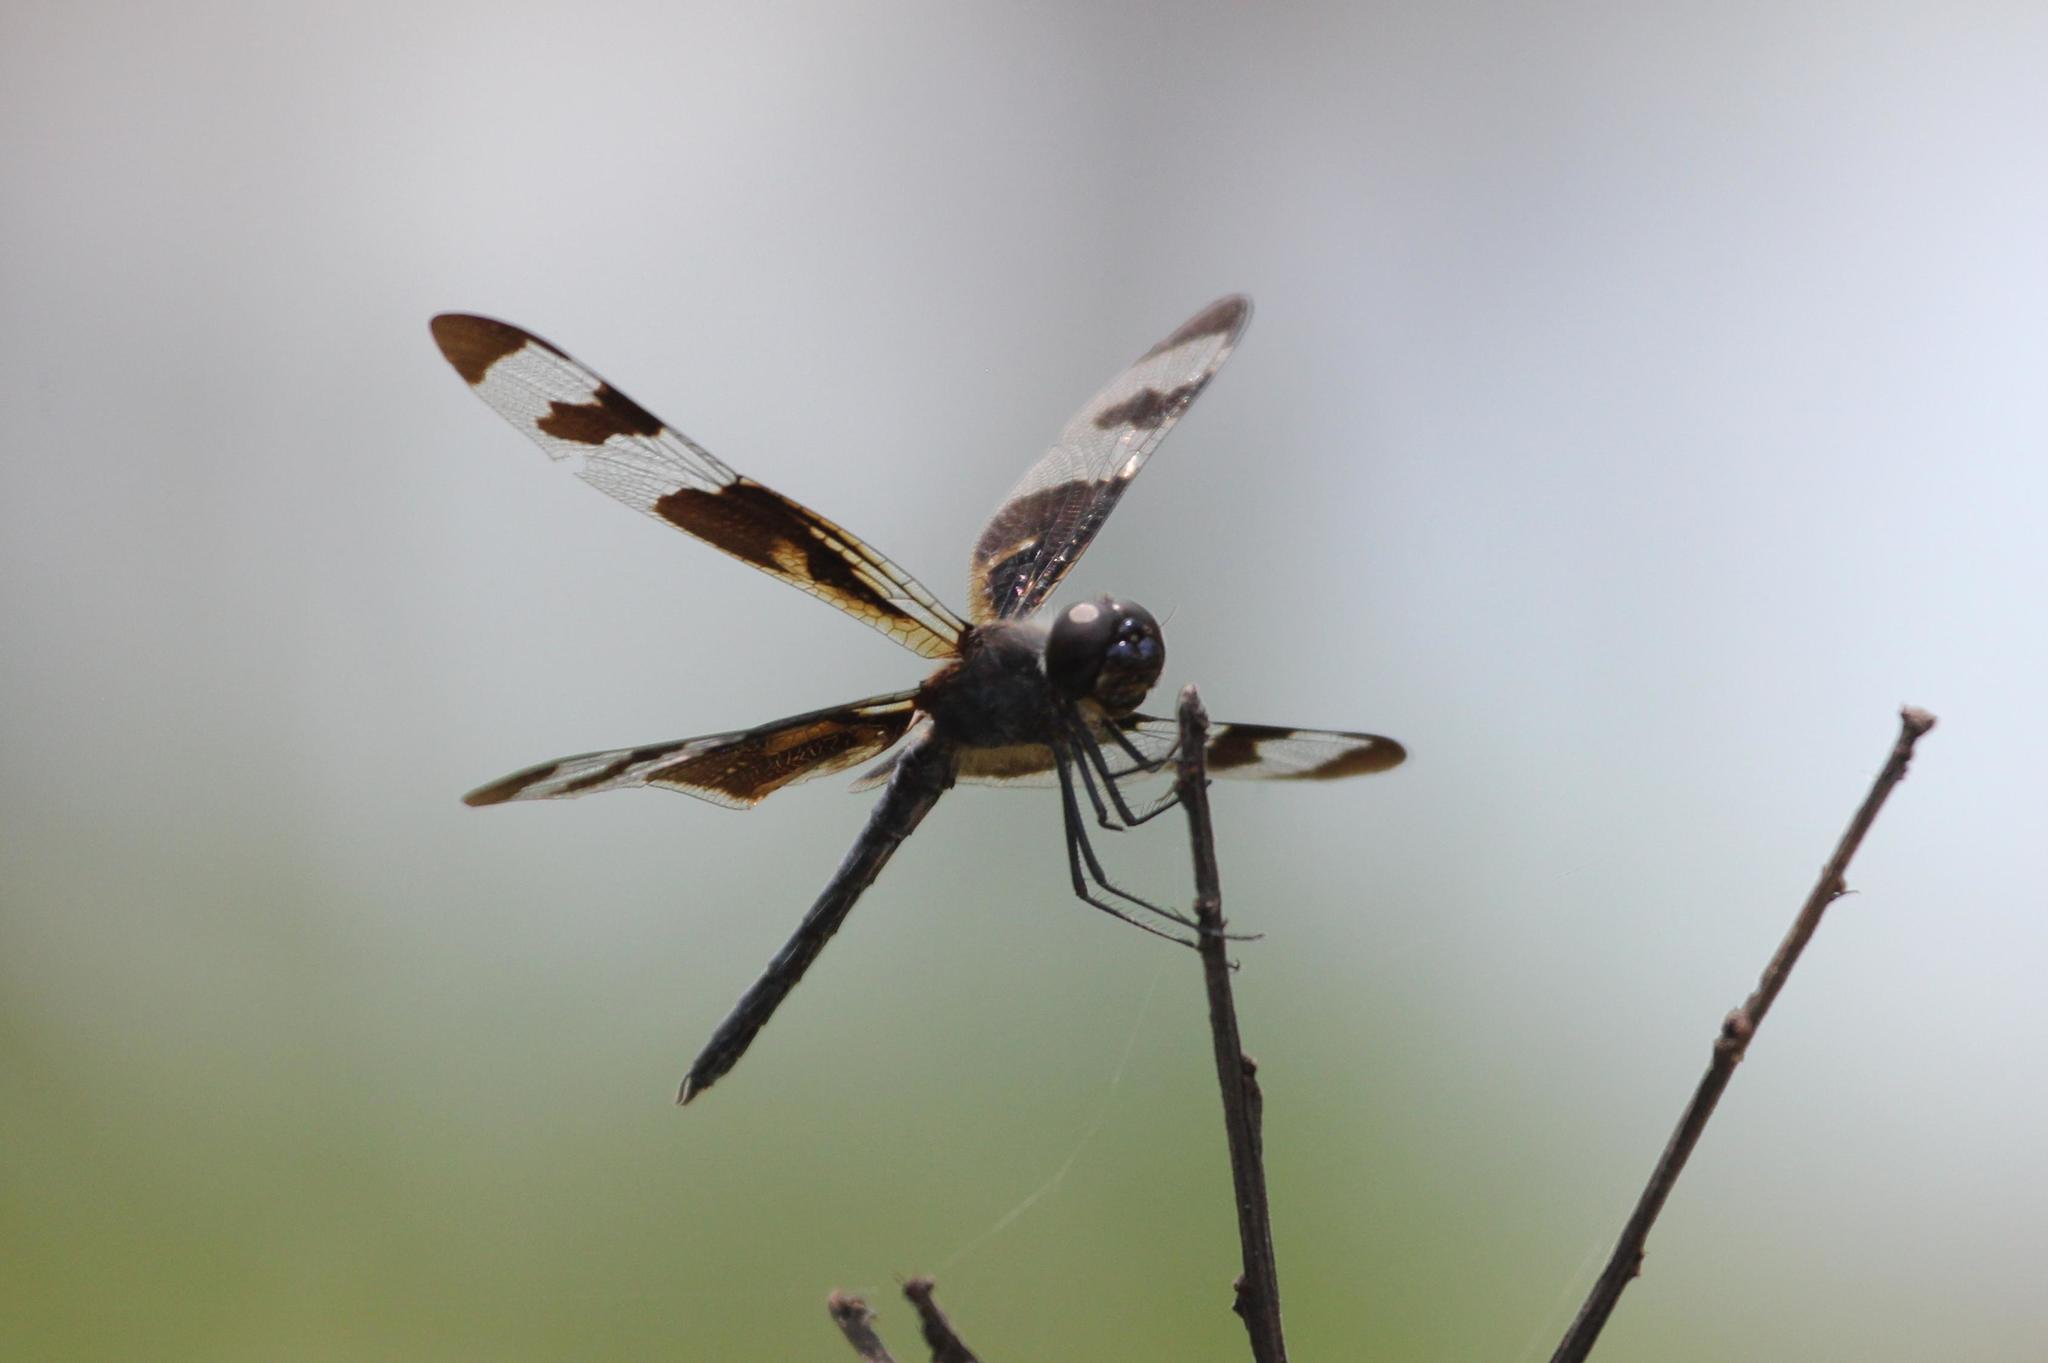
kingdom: Animalia
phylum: Arthropoda
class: Insecta
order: Odonata
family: Libellulidae
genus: Celithemis
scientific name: Celithemis fasciata
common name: Banded pennant
